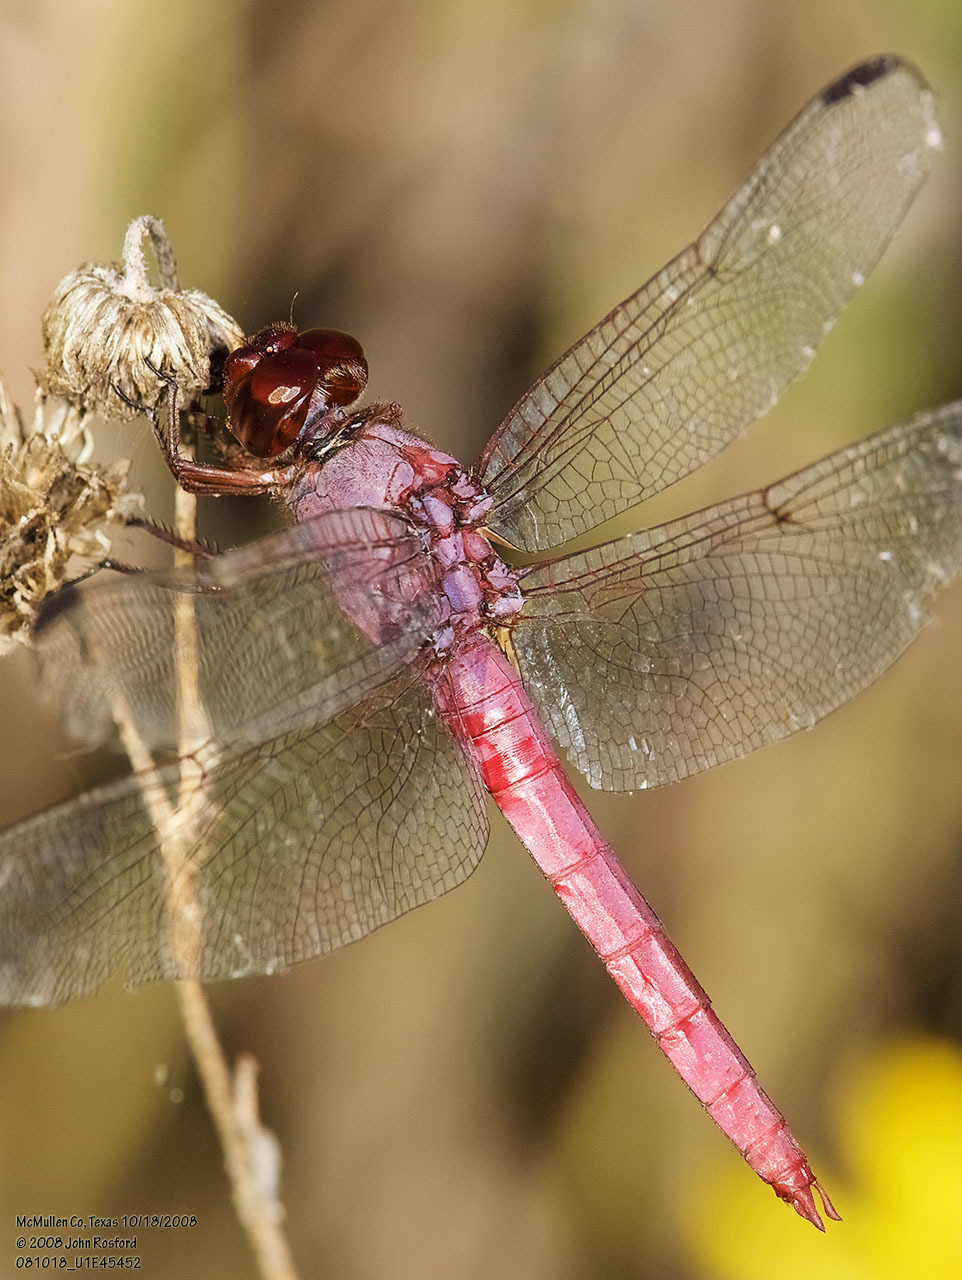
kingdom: Animalia
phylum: Arthropoda
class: Insecta
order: Odonata
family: Libellulidae
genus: Orthemis
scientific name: Orthemis ferruginea
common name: Roseate skimmer
